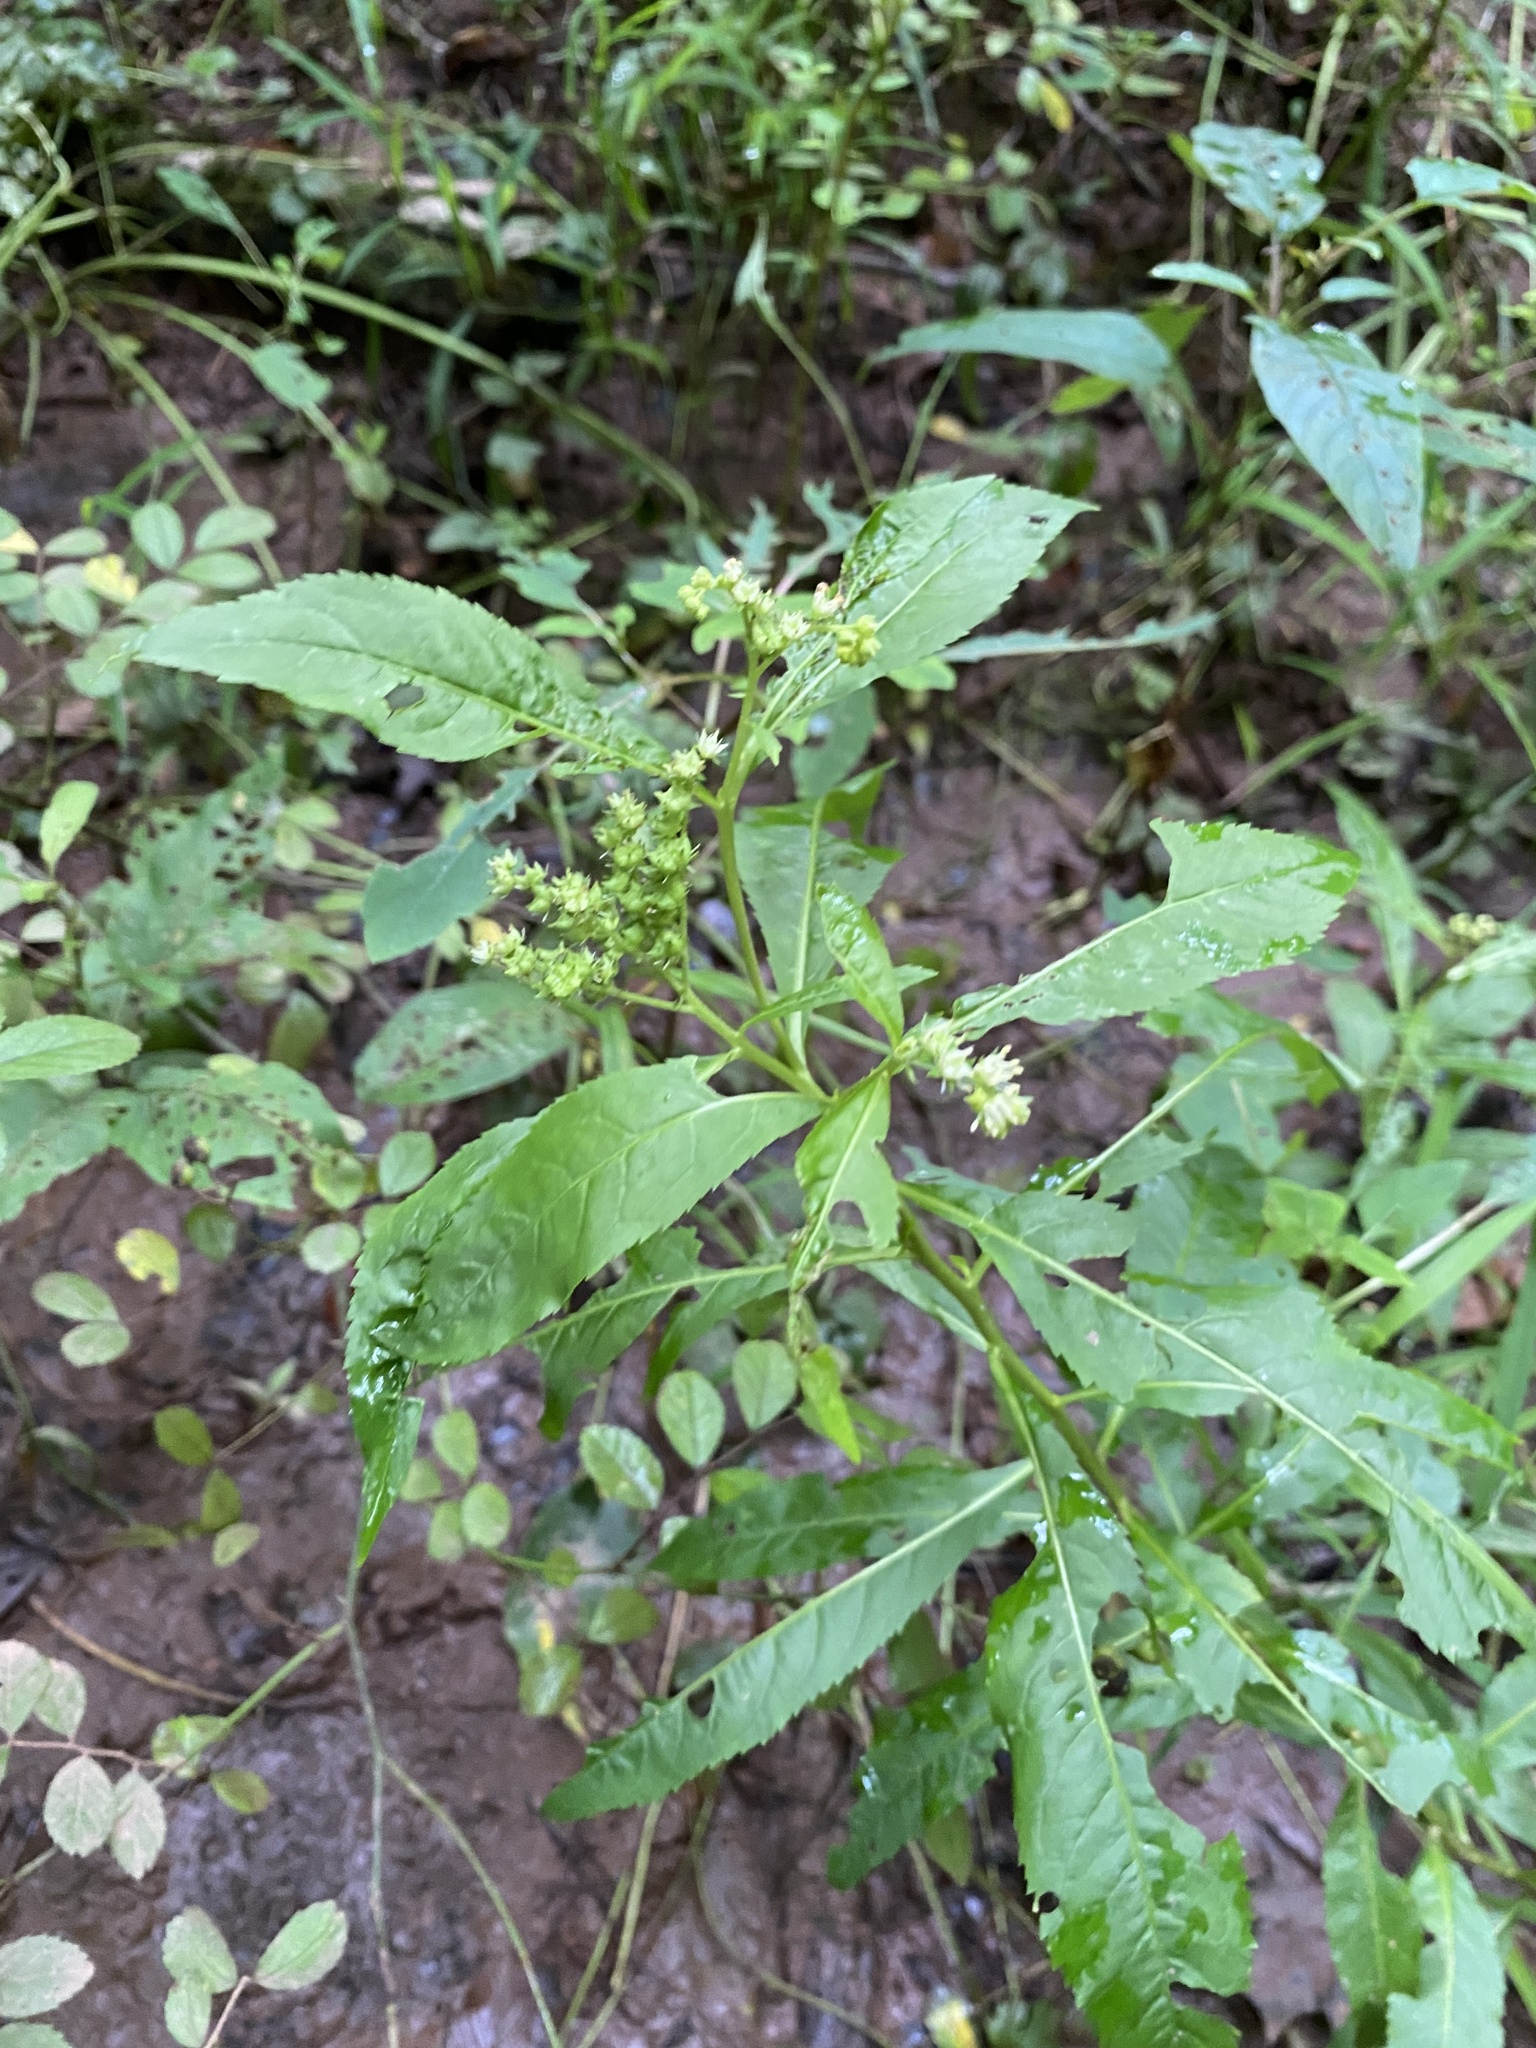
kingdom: Plantae
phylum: Tracheophyta
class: Magnoliopsida
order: Saxifragales
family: Penthoraceae
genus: Penthorum
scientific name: Penthorum sedoides
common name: Ditch stonecrop
